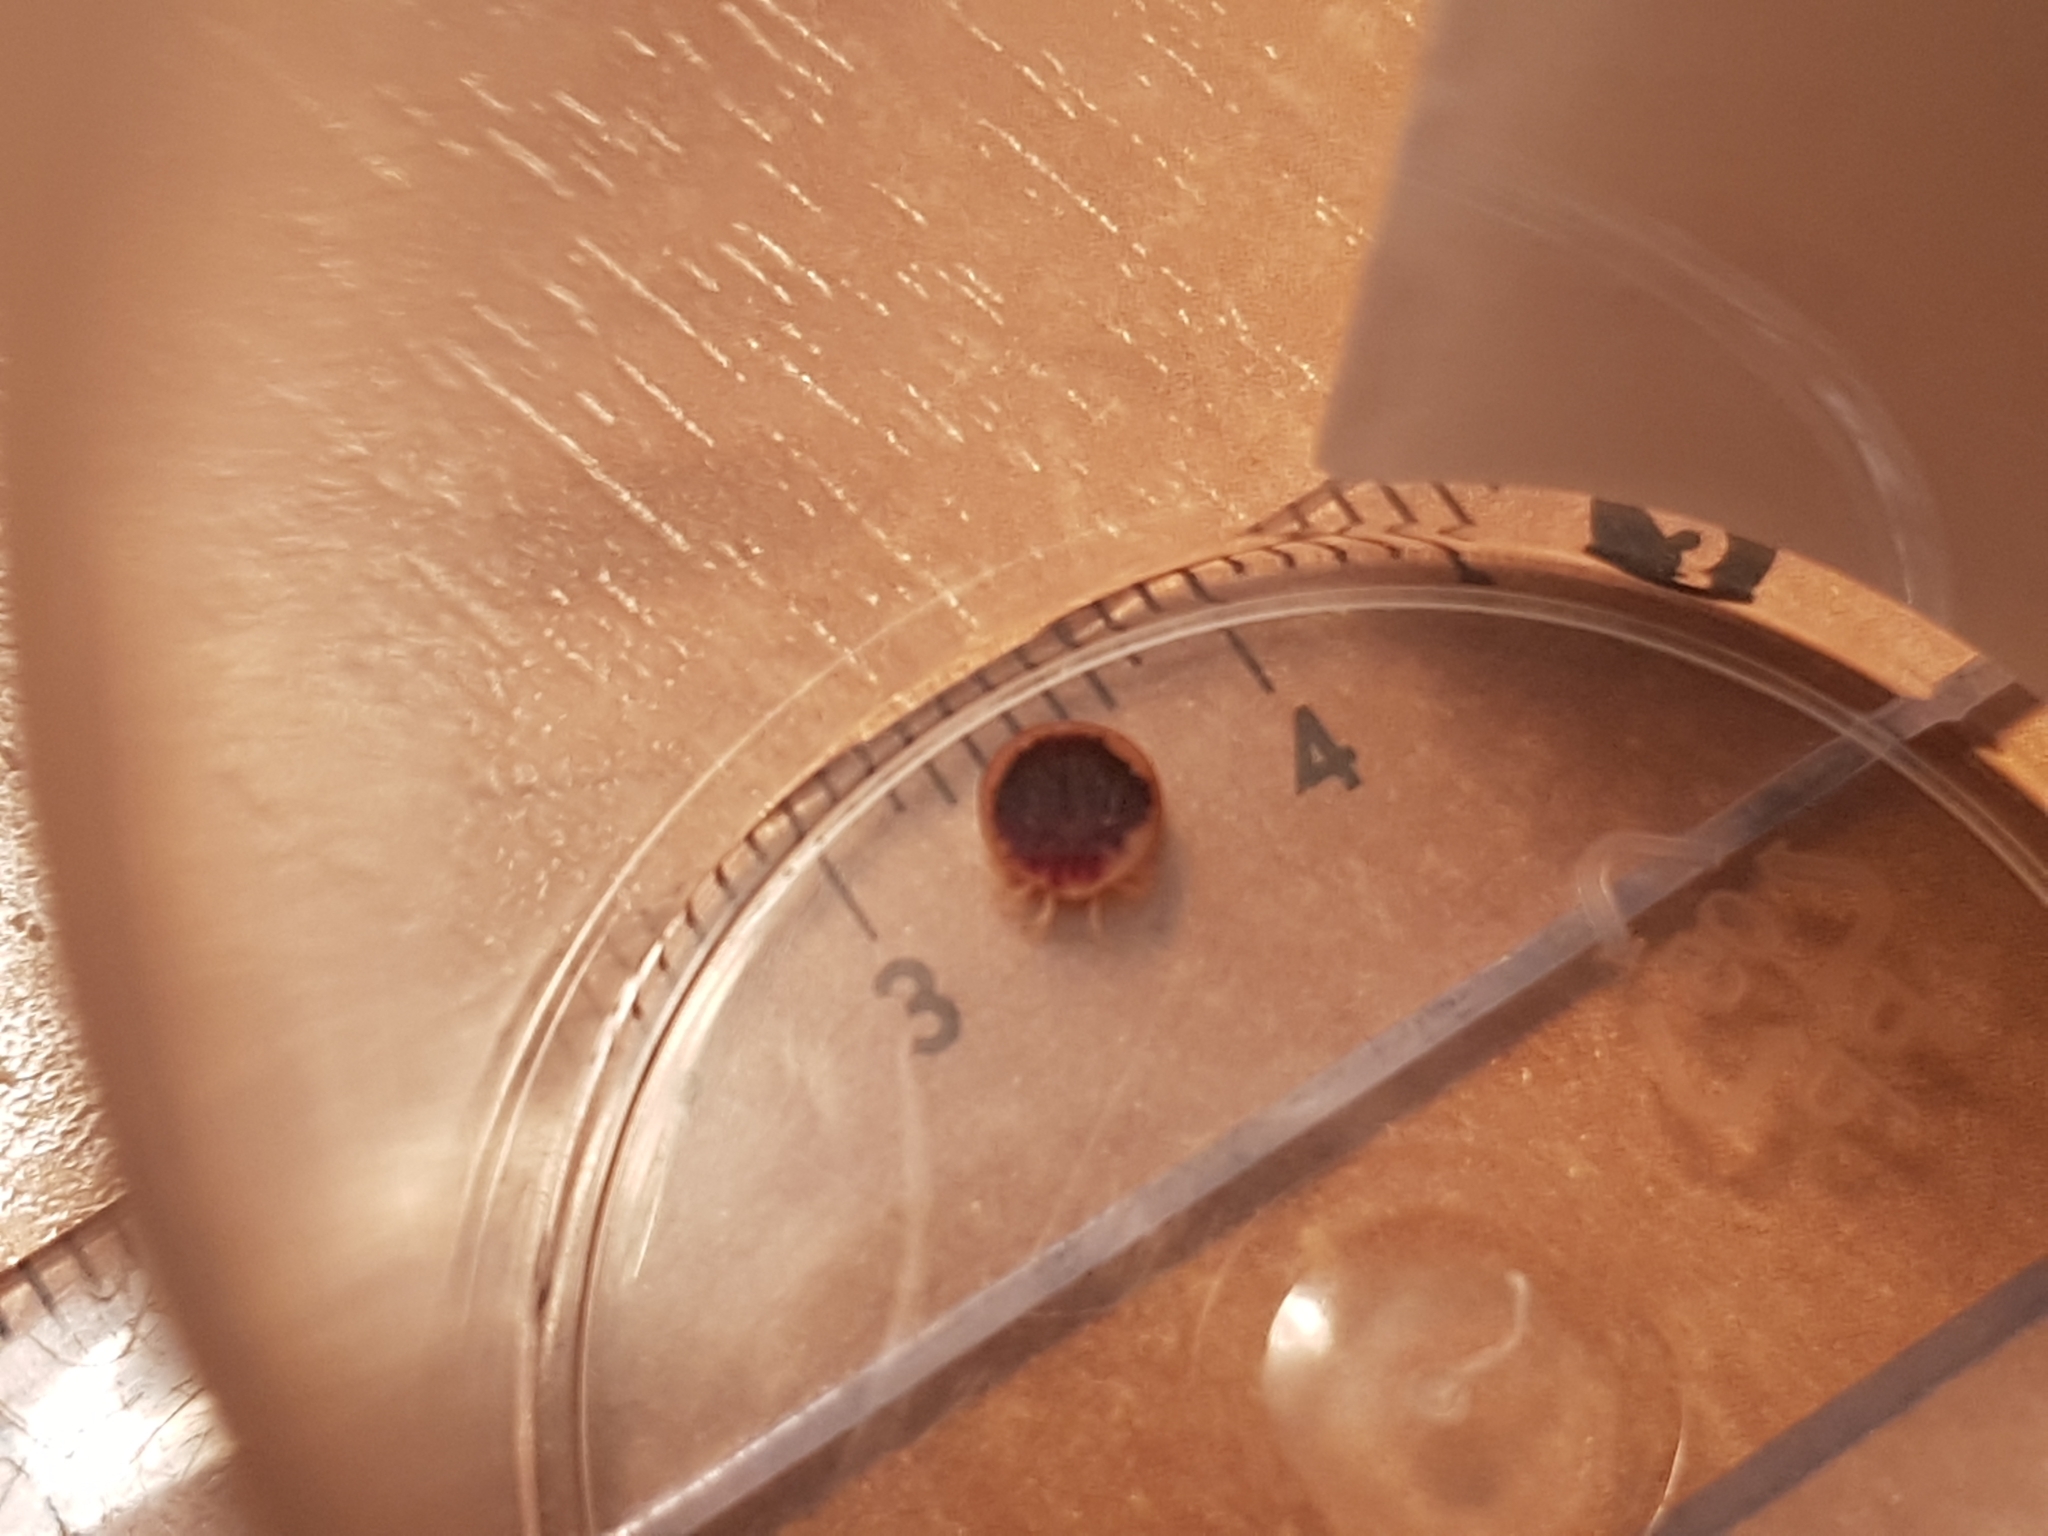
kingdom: Animalia
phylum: Arthropoda
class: Arachnida
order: Ixodida
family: Argasidae
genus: Argas
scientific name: Argas vespertilionis
